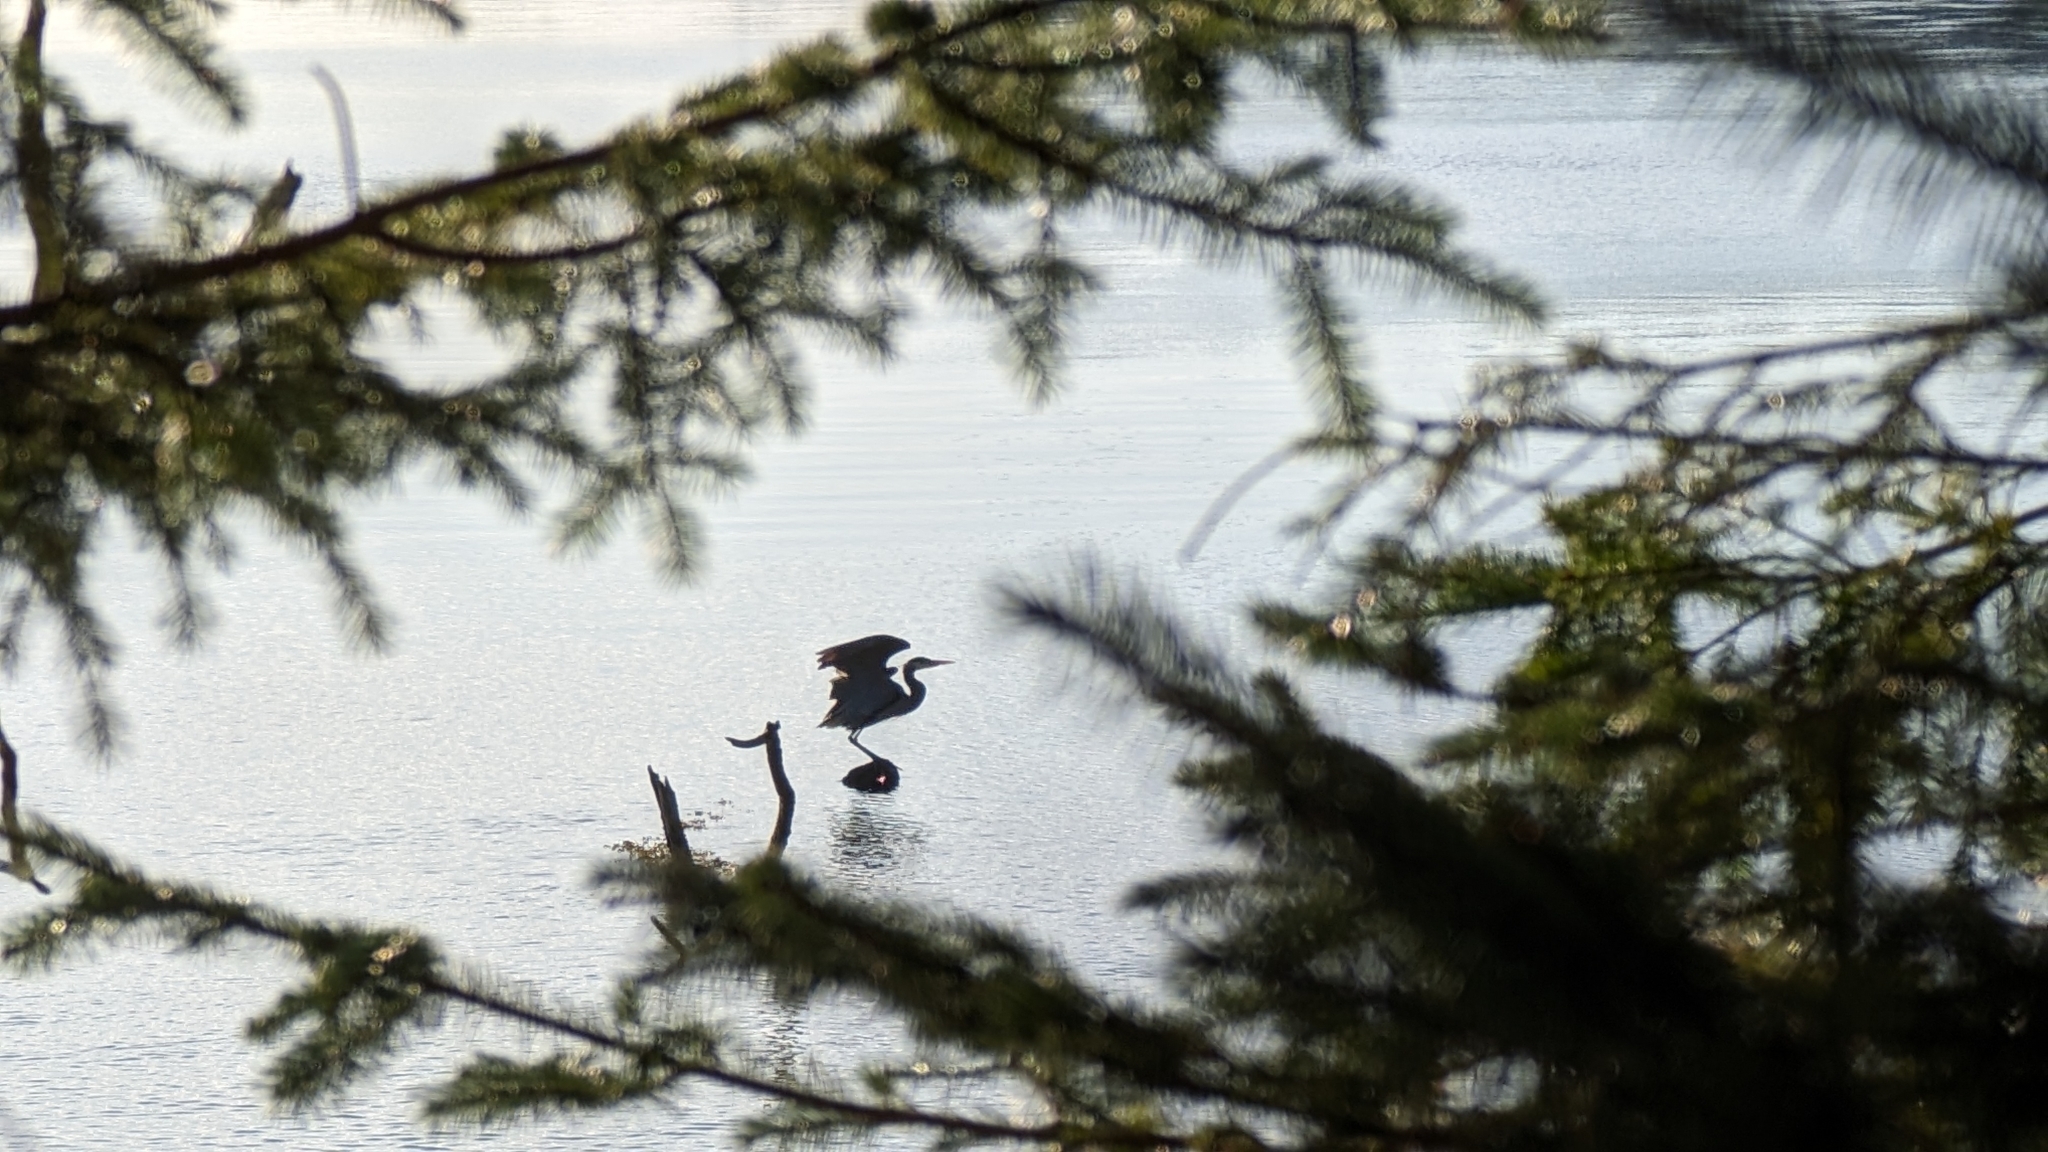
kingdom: Animalia
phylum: Chordata
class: Aves
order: Pelecaniformes
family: Ardeidae
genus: Ardea
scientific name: Ardea herodias
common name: Great blue heron
